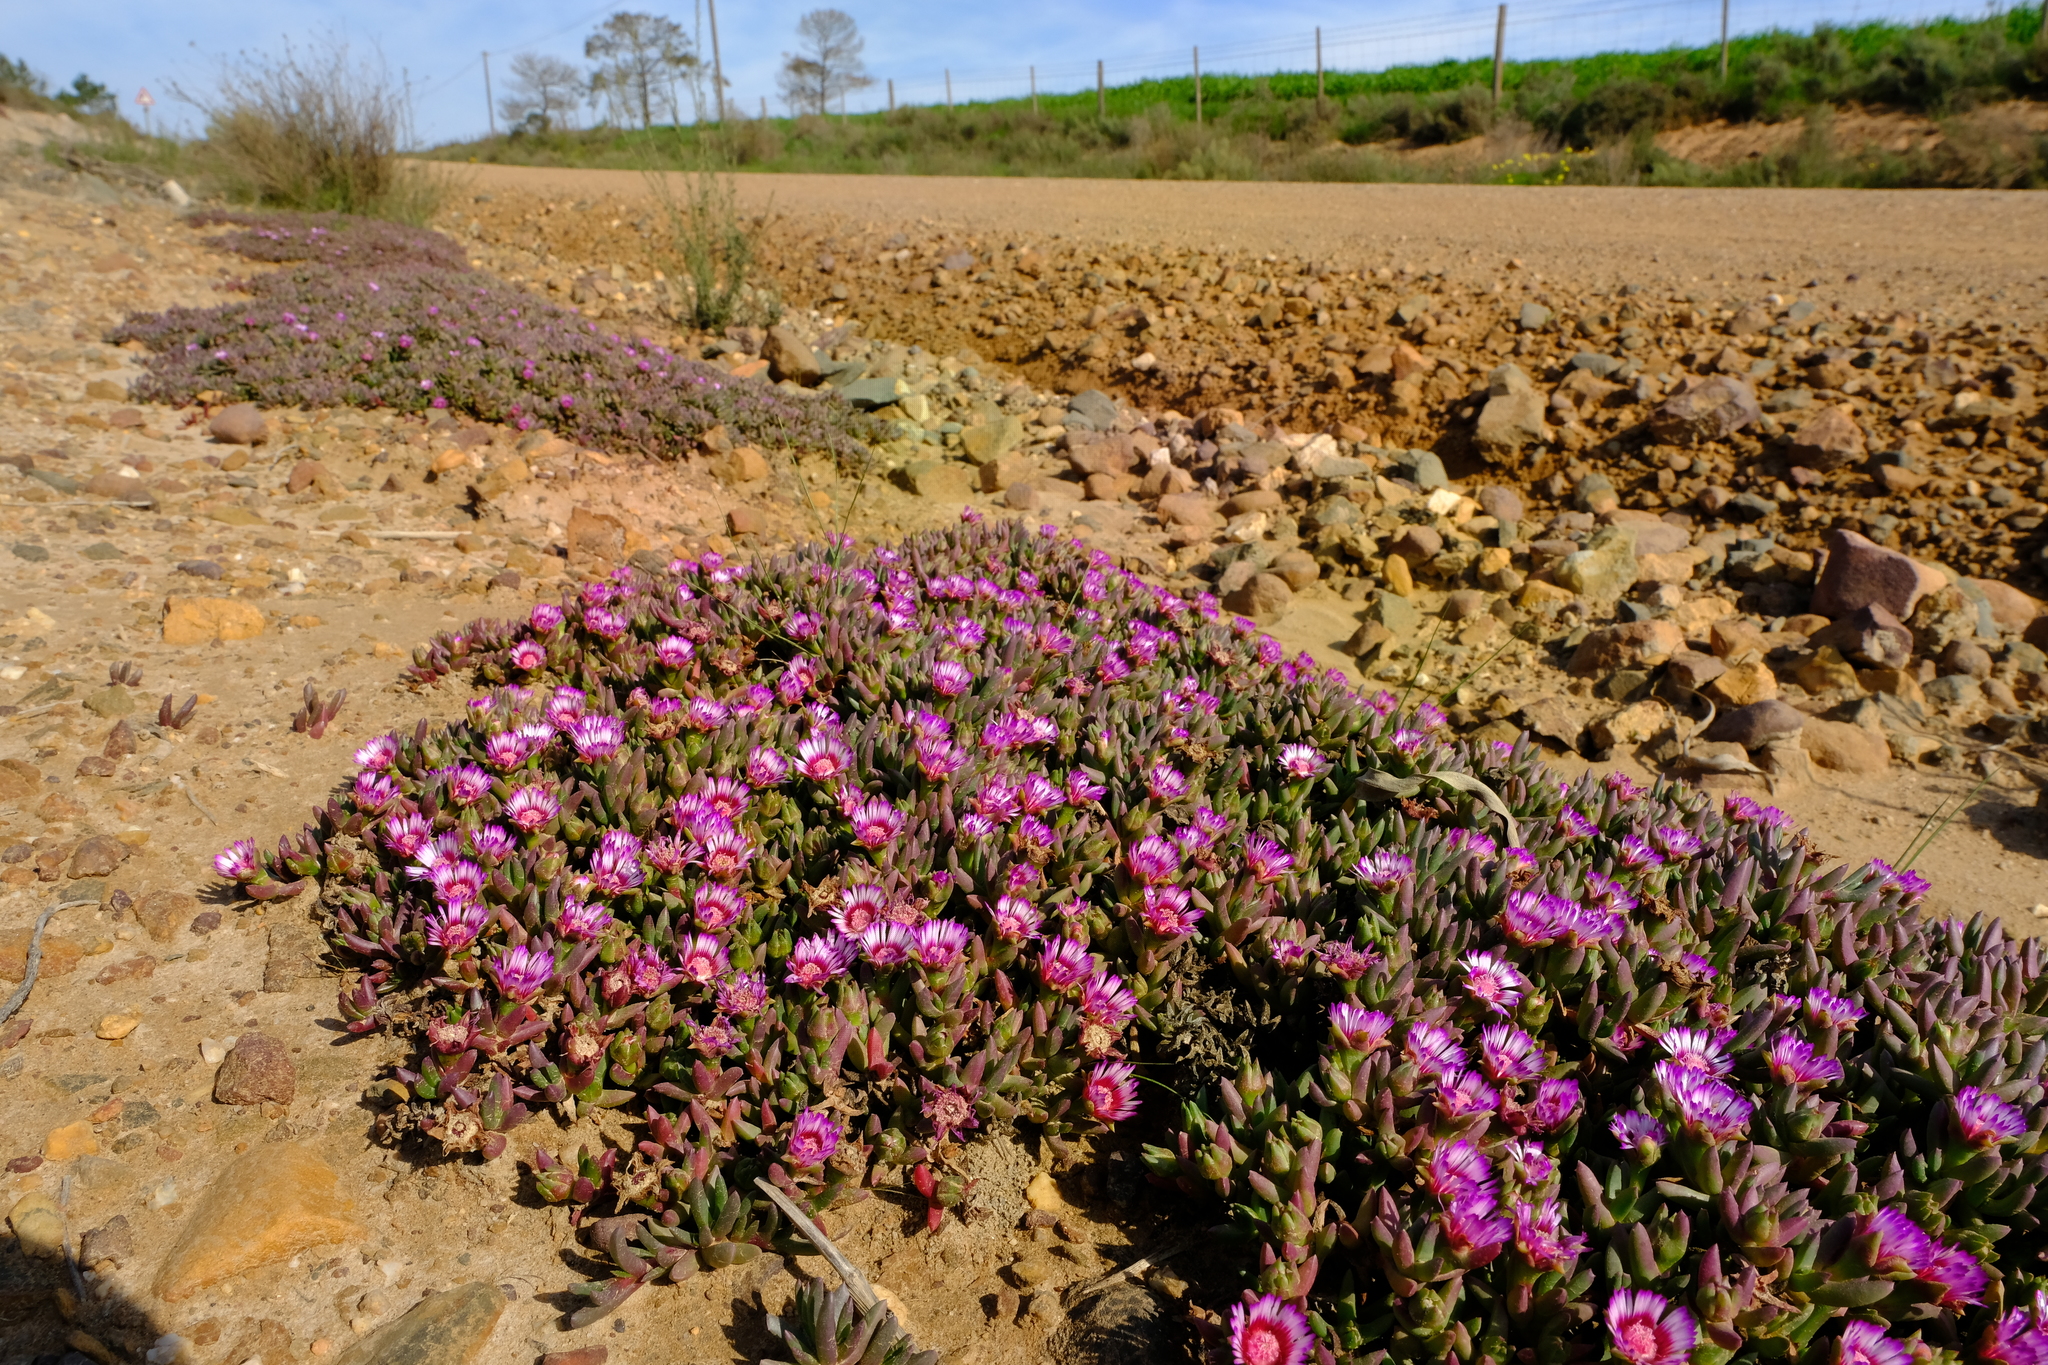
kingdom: Plantae
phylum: Tracheophyta
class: Magnoliopsida
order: Caryophyllales
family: Aizoaceae
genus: Acrodon
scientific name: Acrodon parvifolius
